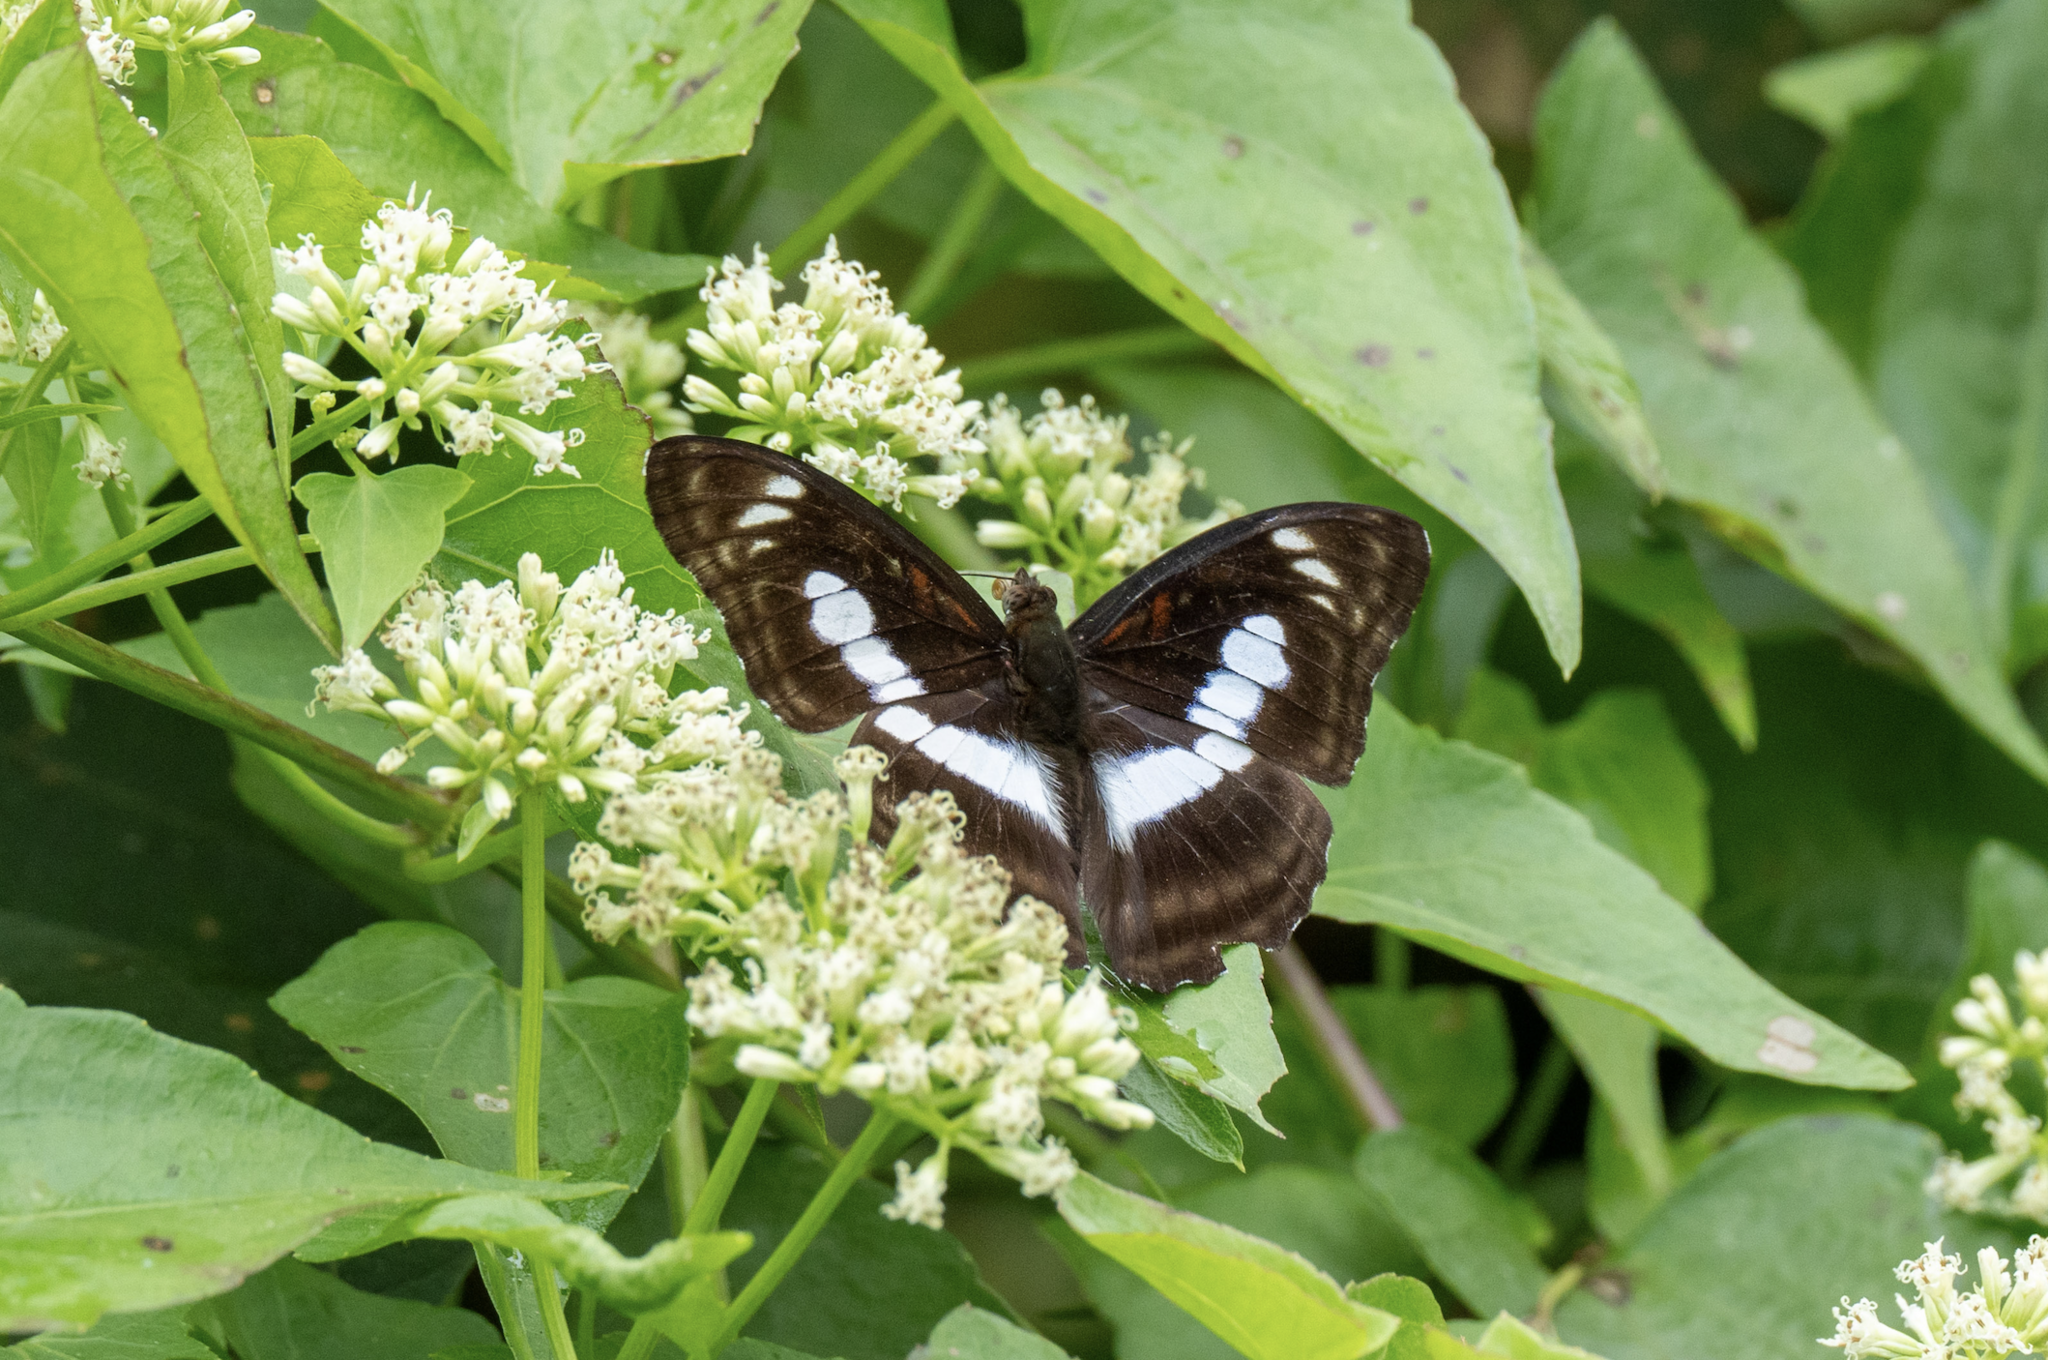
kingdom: Animalia
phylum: Arthropoda
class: Insecta
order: Lepidoptera
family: Nymphalidae
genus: Parathyma
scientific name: Parathyma selenophora
